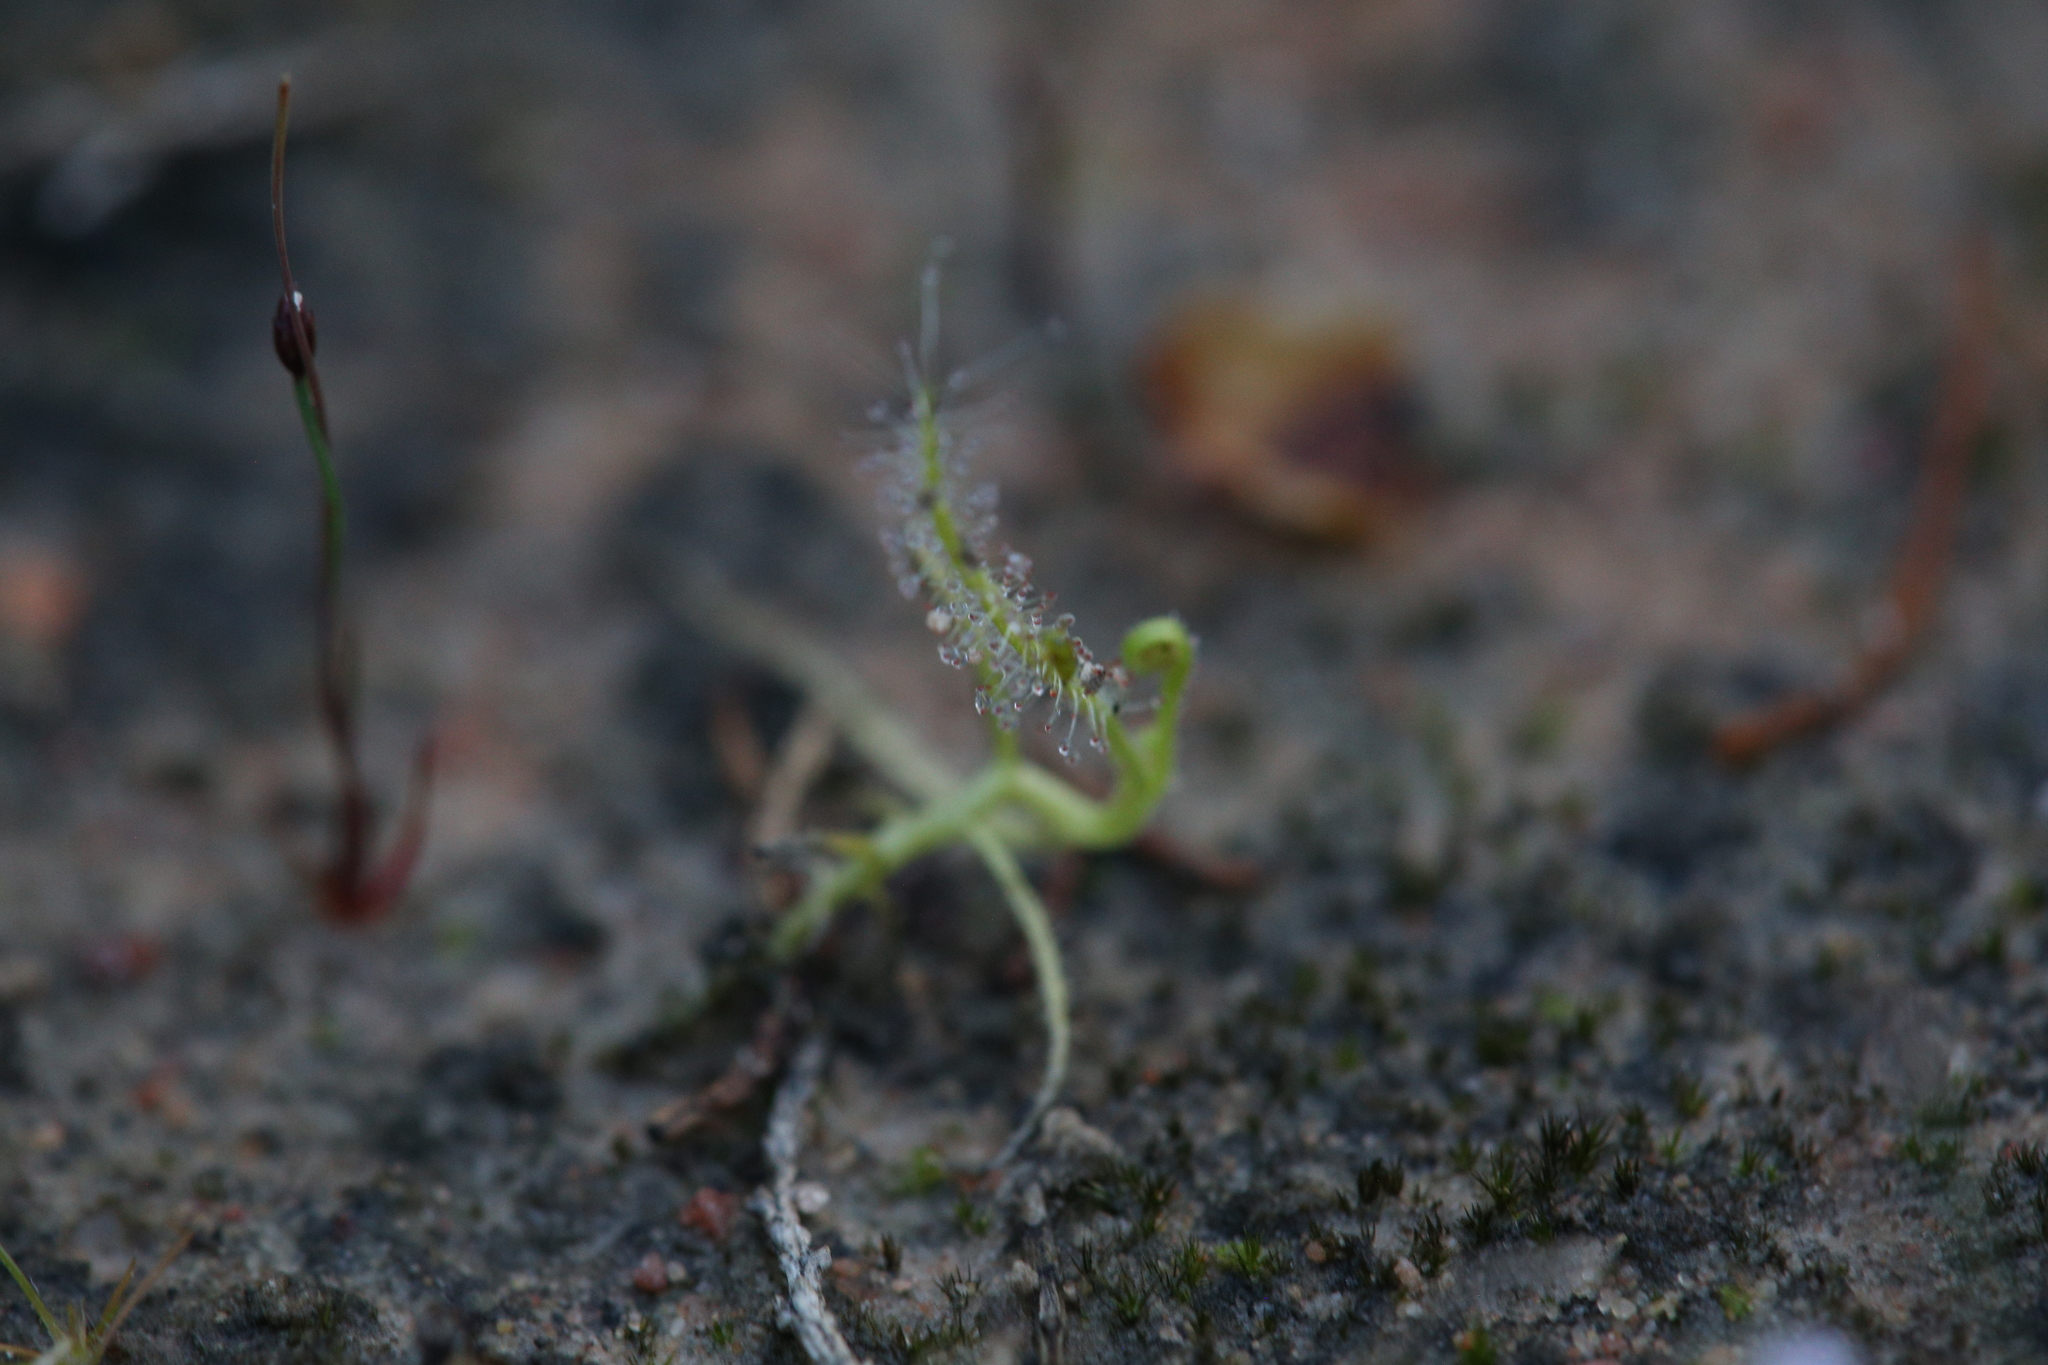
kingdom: Plantae
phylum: Tracheophyta
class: Magnoliopsida
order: Caryophyllales
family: Droseraceae
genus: Drosera
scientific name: Drosera indica
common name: Indian sundew
